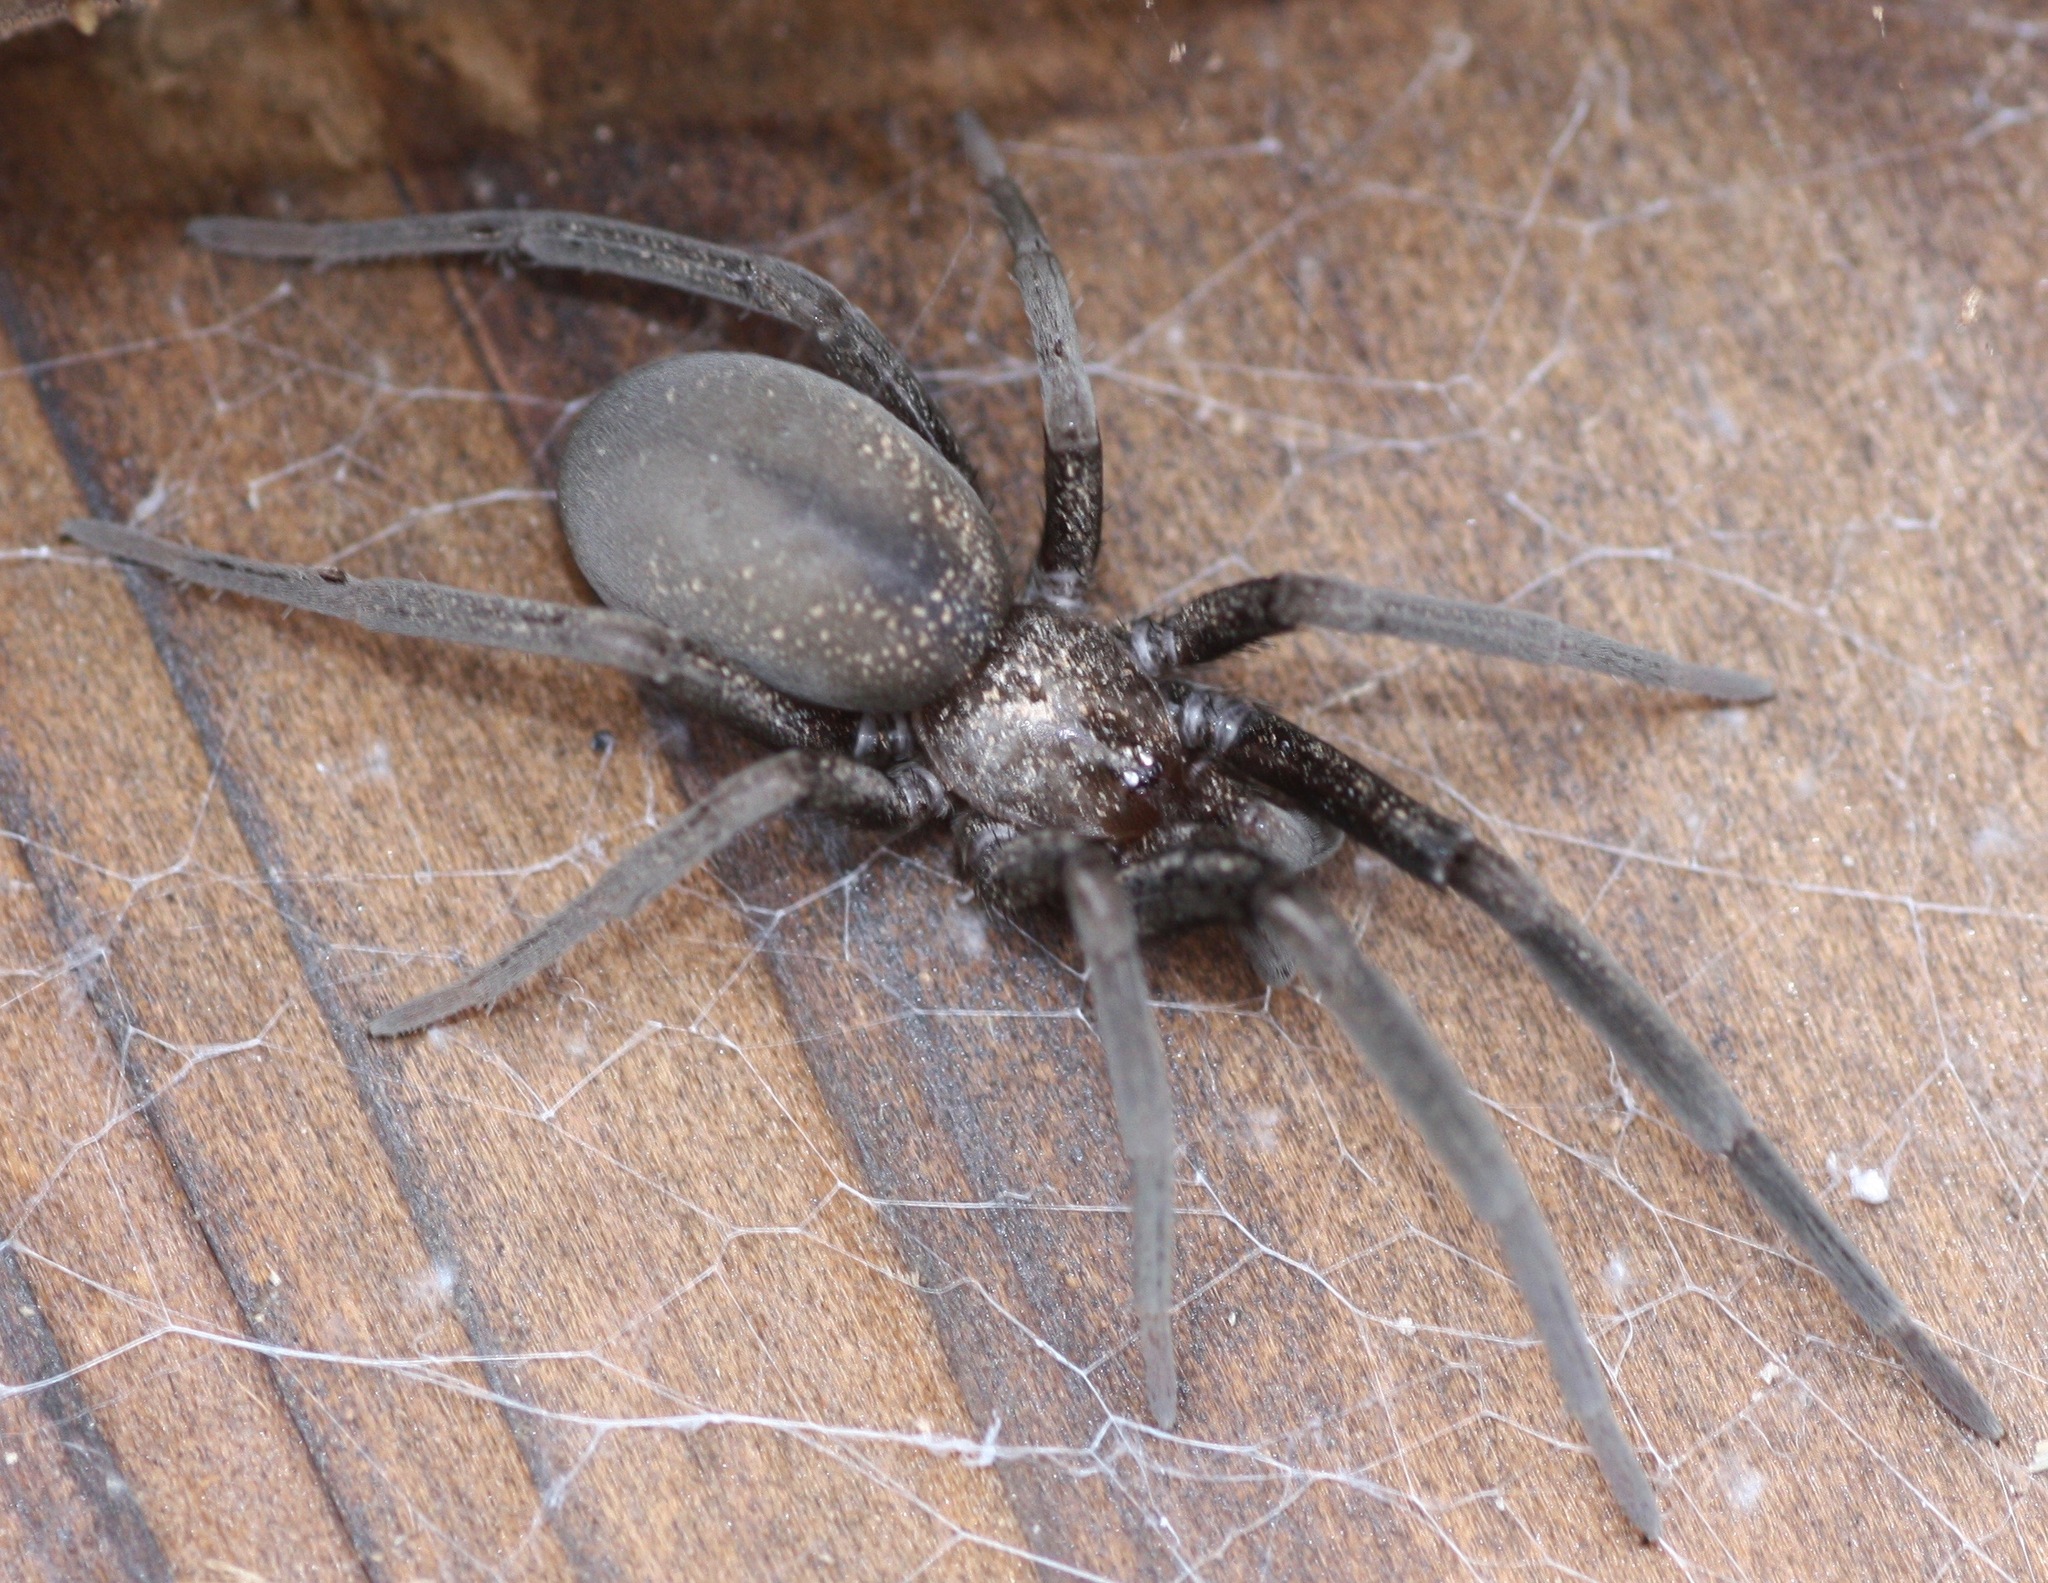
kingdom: Animalia
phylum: Arthropoda
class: Arachnida
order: Araneae
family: Filistatidae
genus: Kukulcania
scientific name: Kukulcania arizonica
